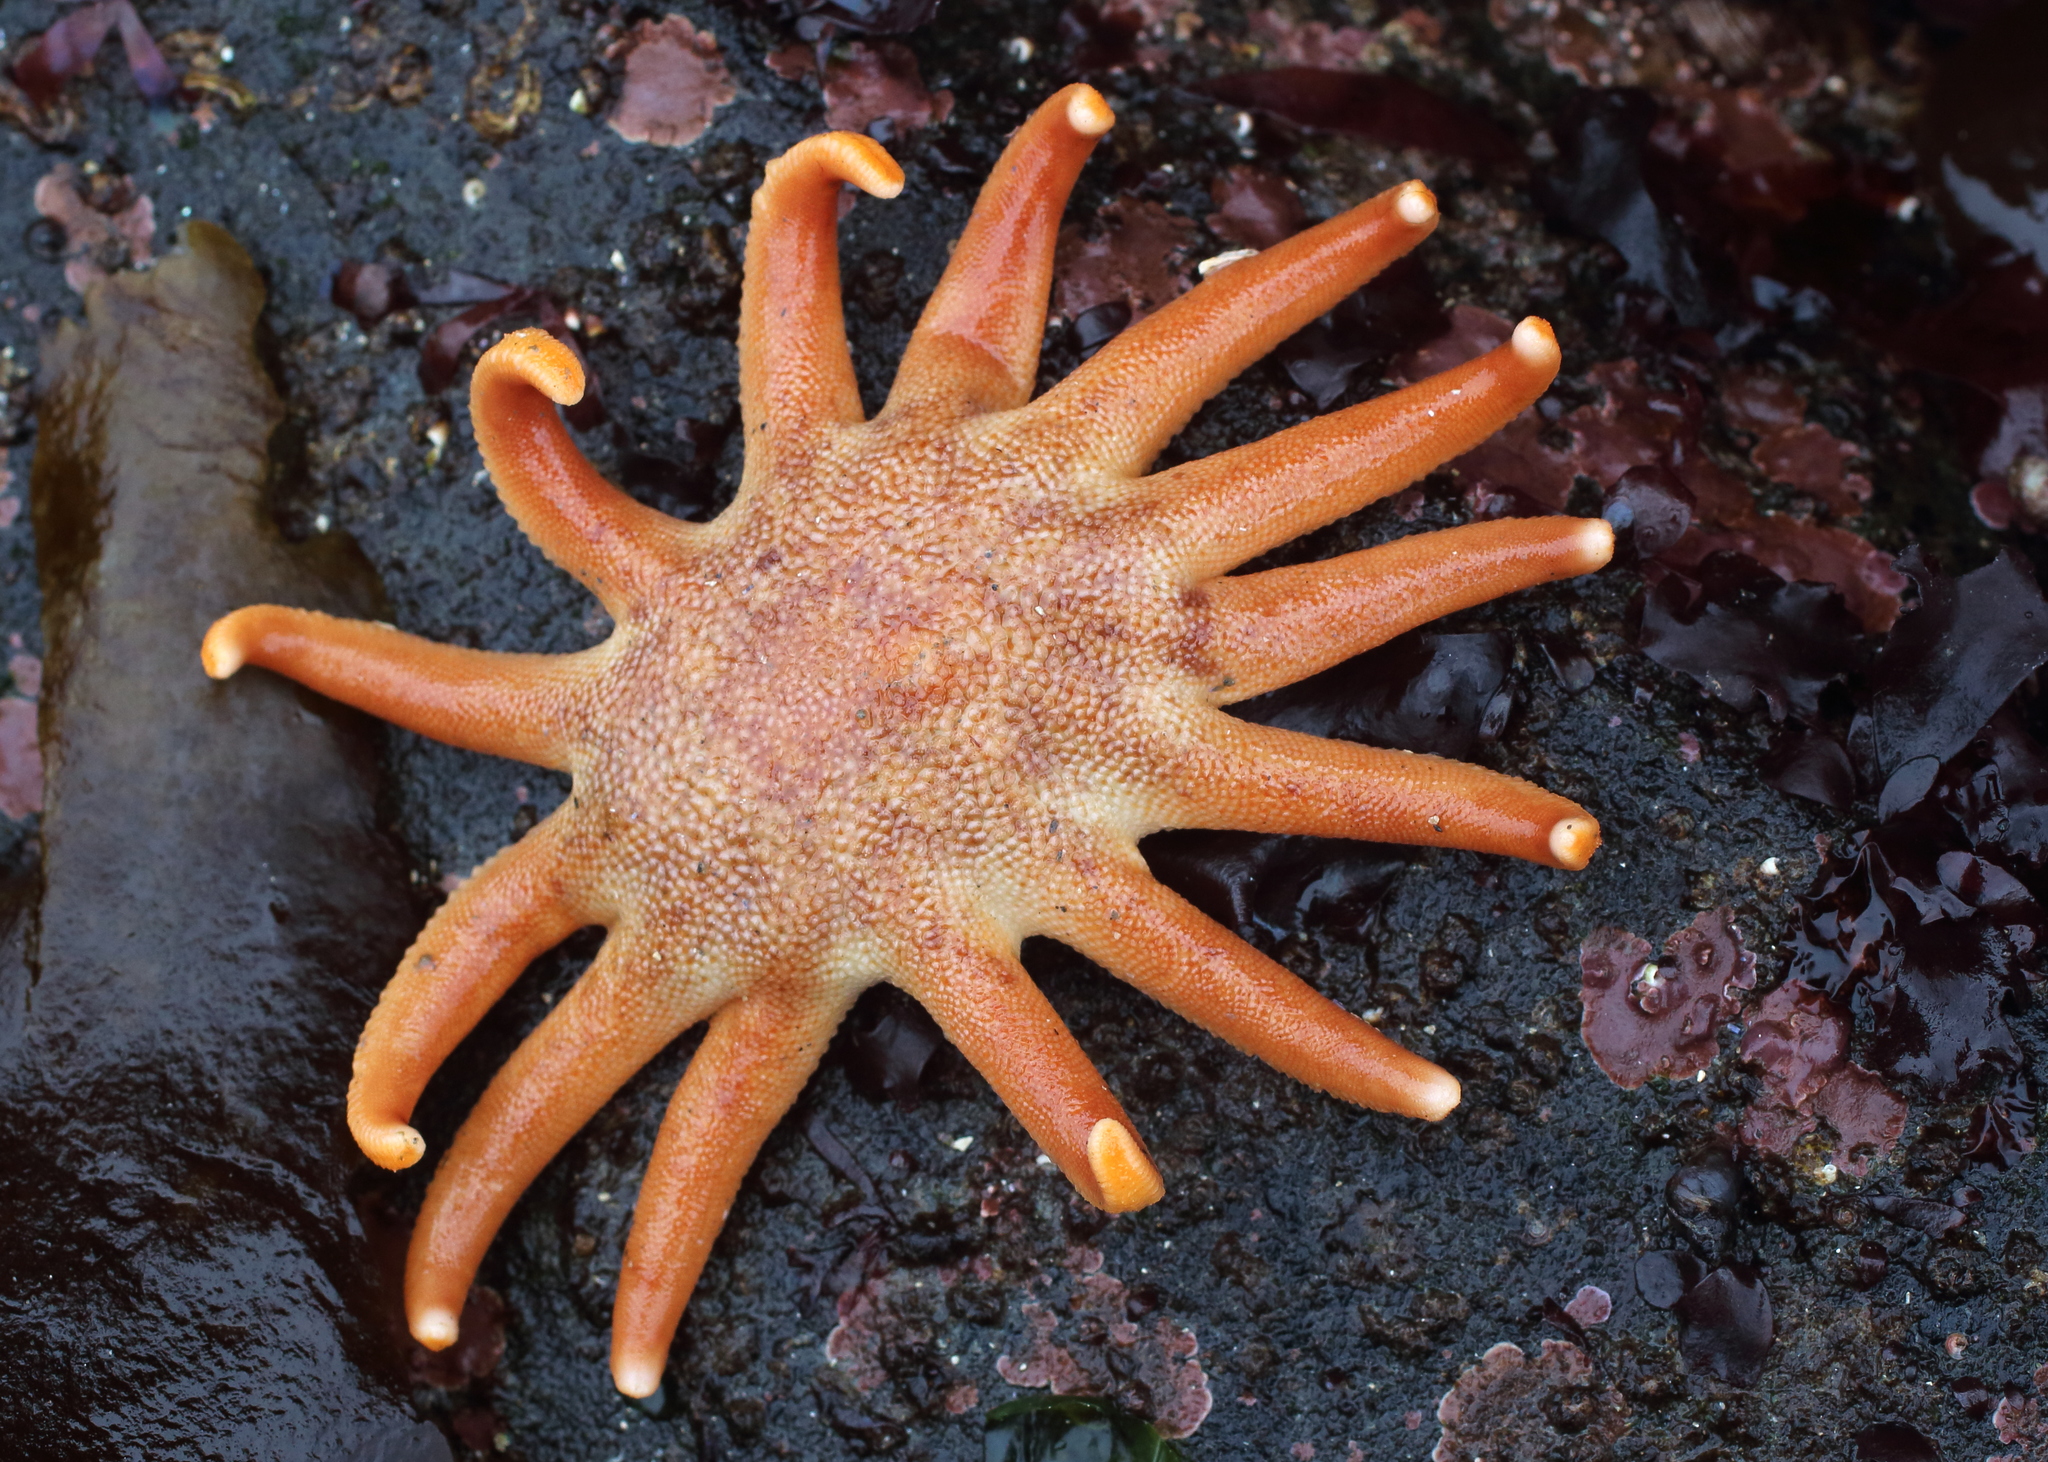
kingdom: Animalia
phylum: Echinodermata
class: Asteroidea
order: Valvatida
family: Solasteridae
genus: Solaster
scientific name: Solaster dawsoni
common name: Morning sun star
